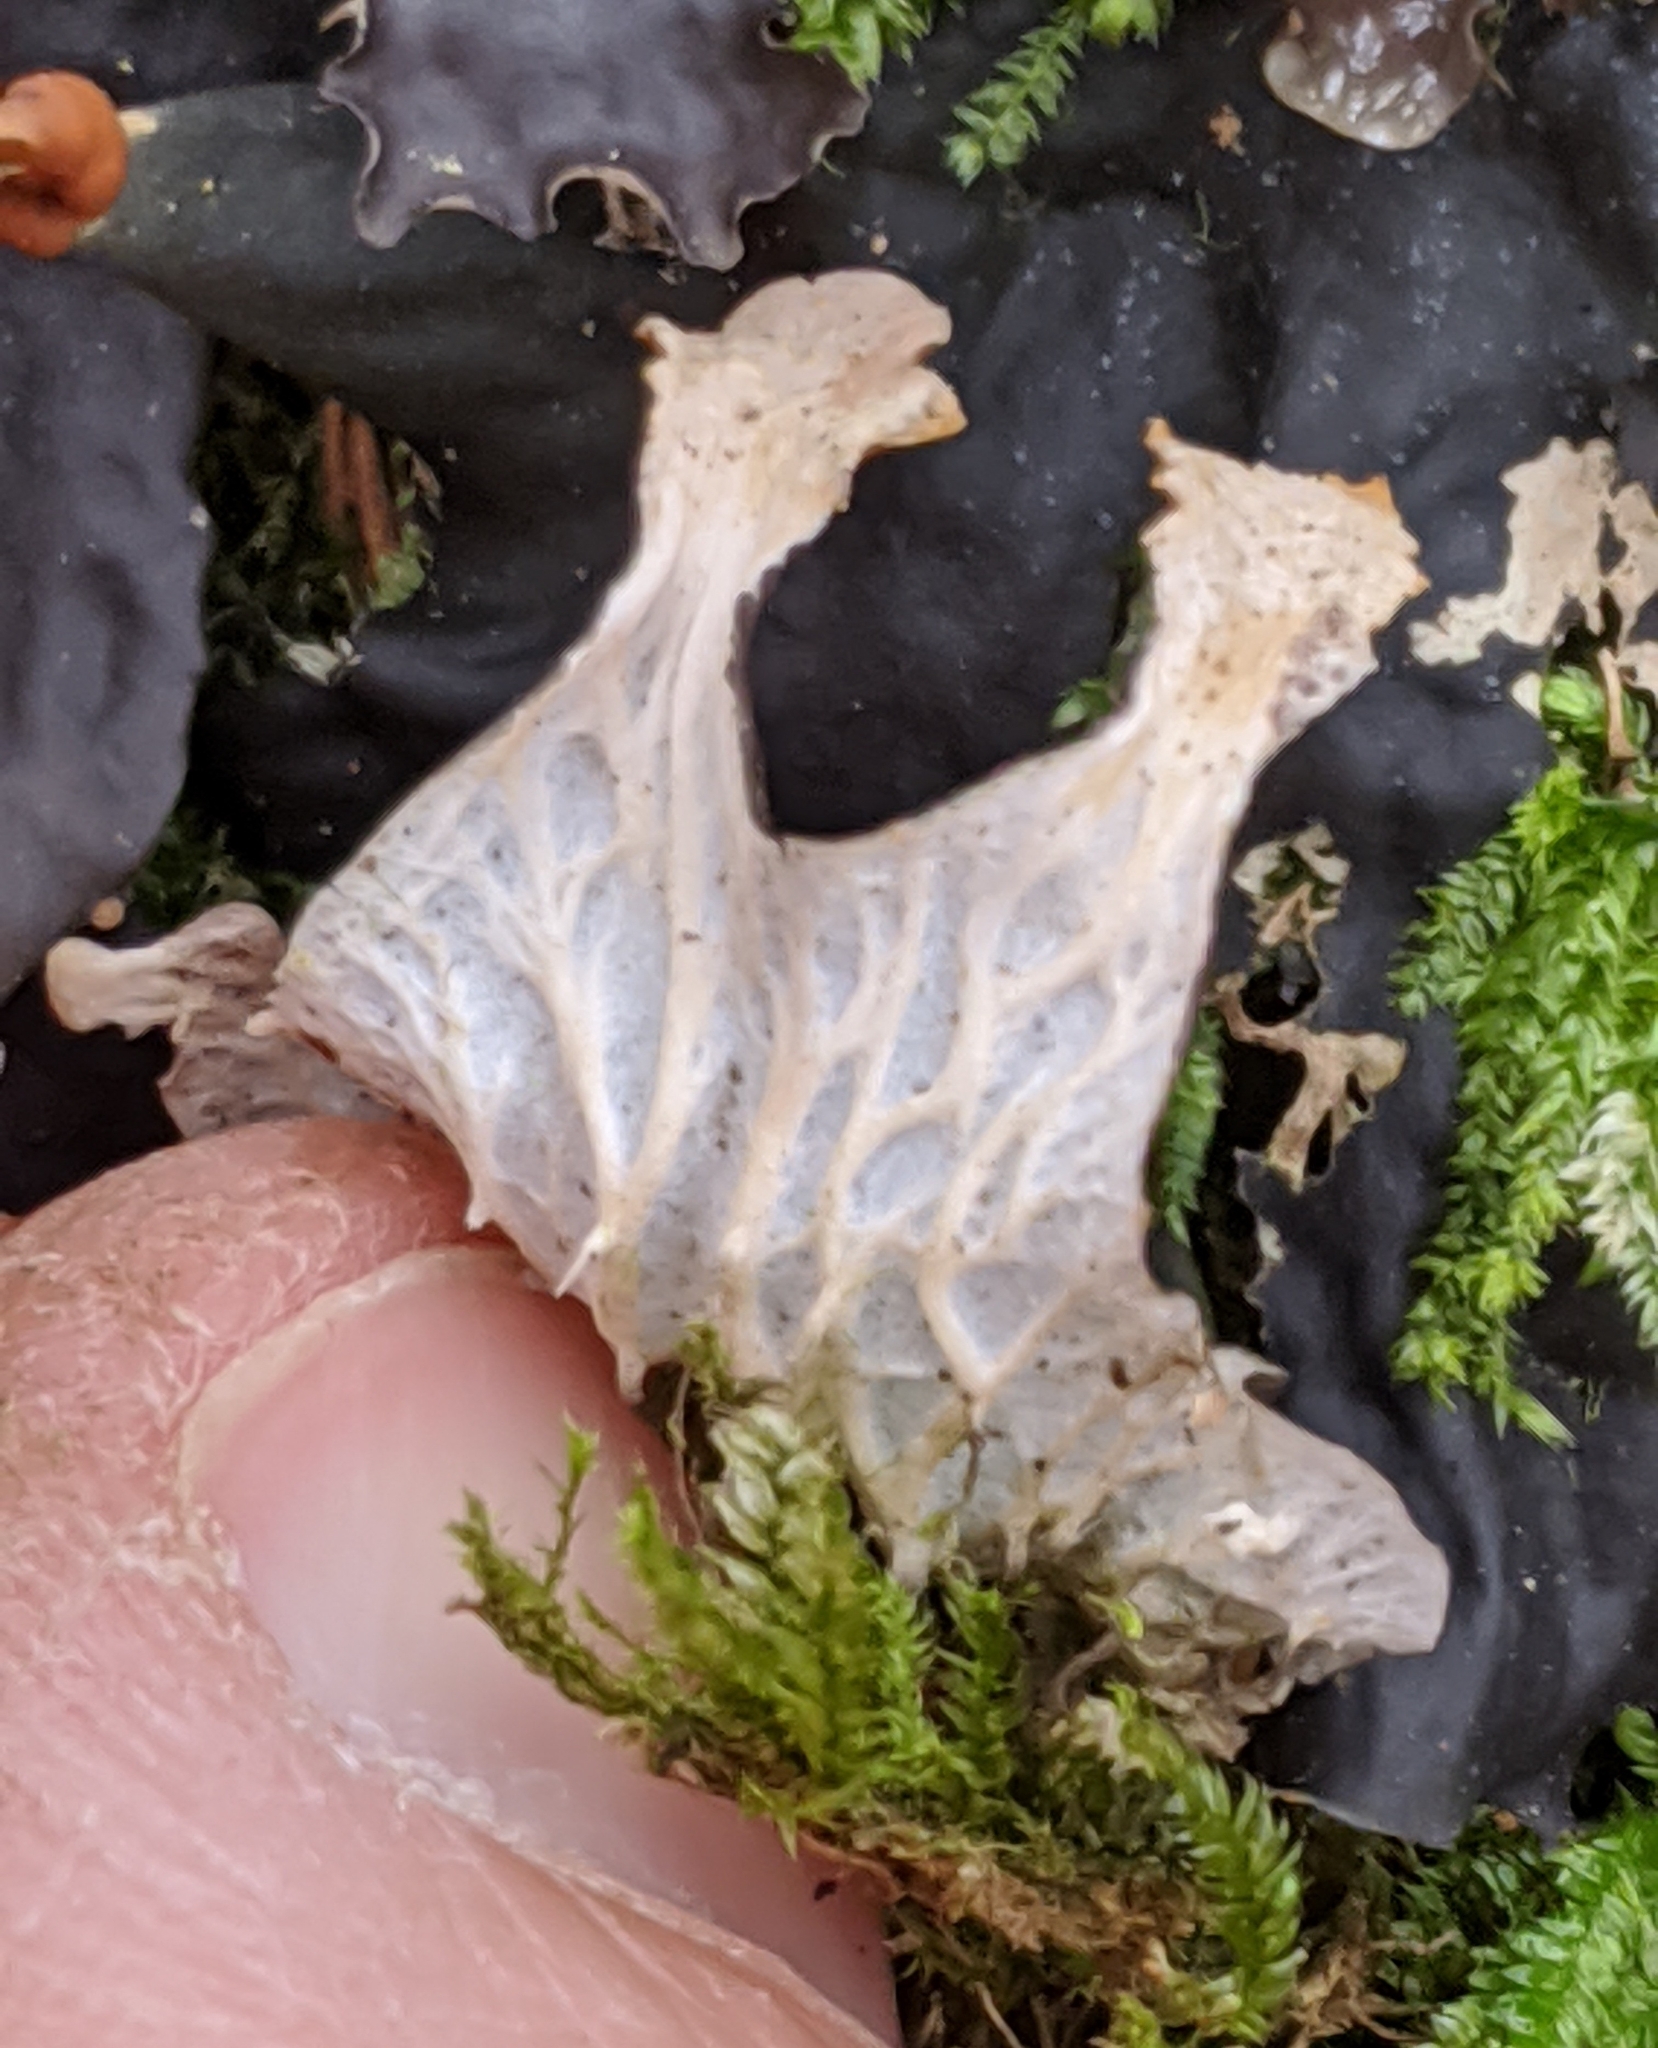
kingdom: Fungi
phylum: Ascomycota
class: Lecanoromycetes
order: Peltigerales
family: Peltigeraceae
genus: Peltigera
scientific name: Peltigera membranacea
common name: Membranous pelt lichen
